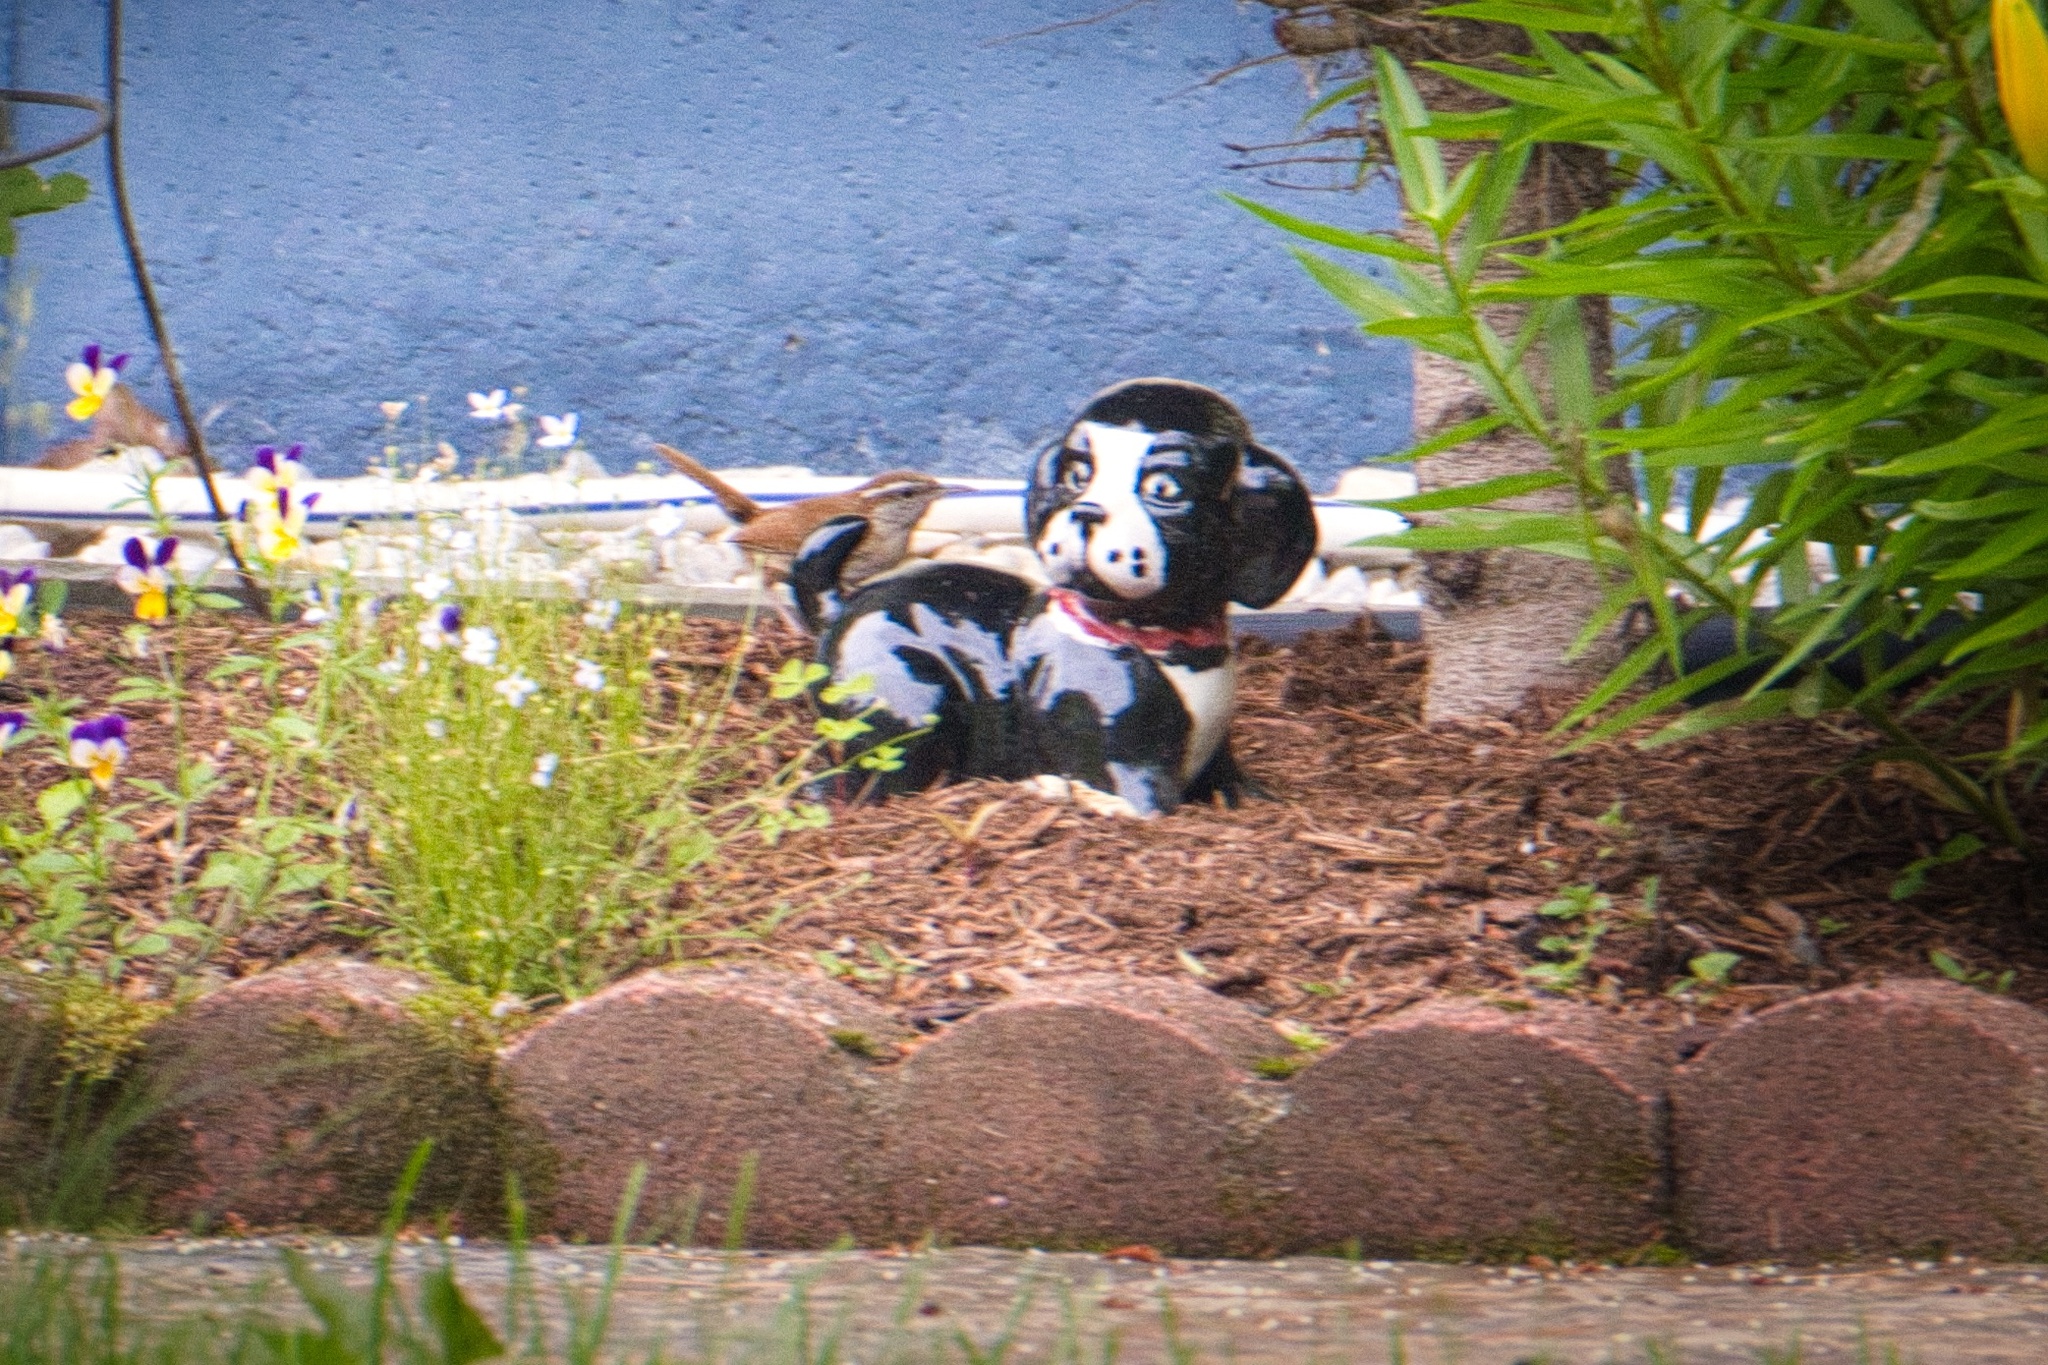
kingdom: Animalia
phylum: Chordata
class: Aves
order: Passeriformes
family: Troglodytidae
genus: Thryothorus
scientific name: Thryothorus ludovicianus
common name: Carolina wren
